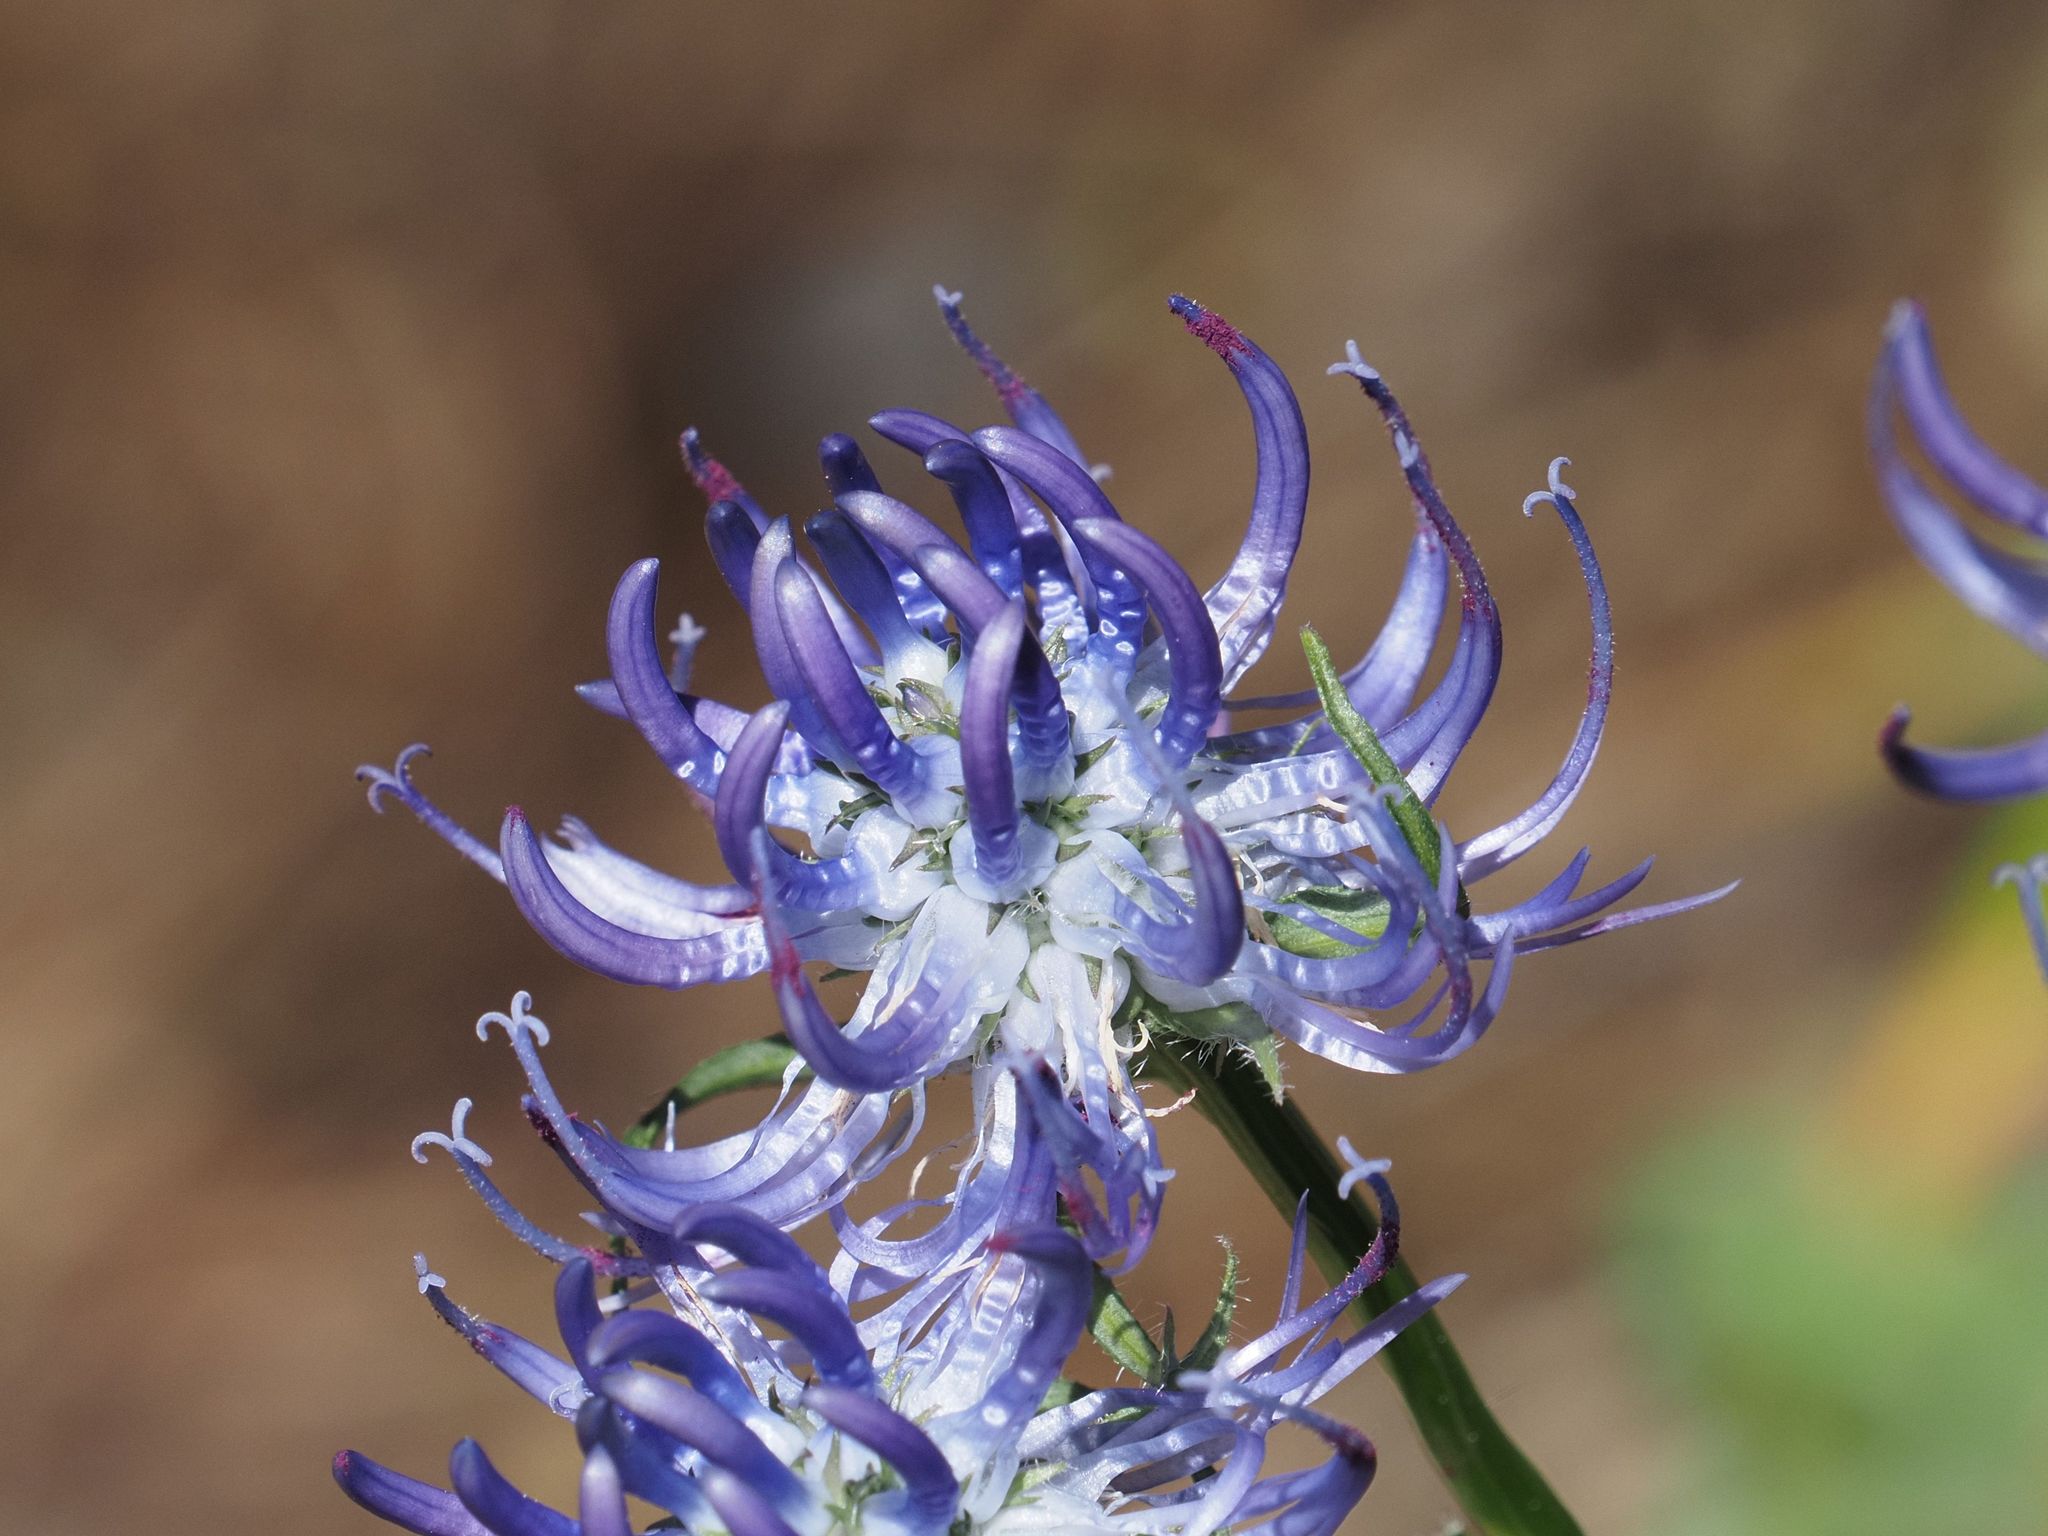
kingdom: Plantae
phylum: Tracheophyta
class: Magnoliopsida
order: Asterales
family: Campanulaceae
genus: Phyteuma
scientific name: Phyteuma orbiculare
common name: Round-headed rampion
